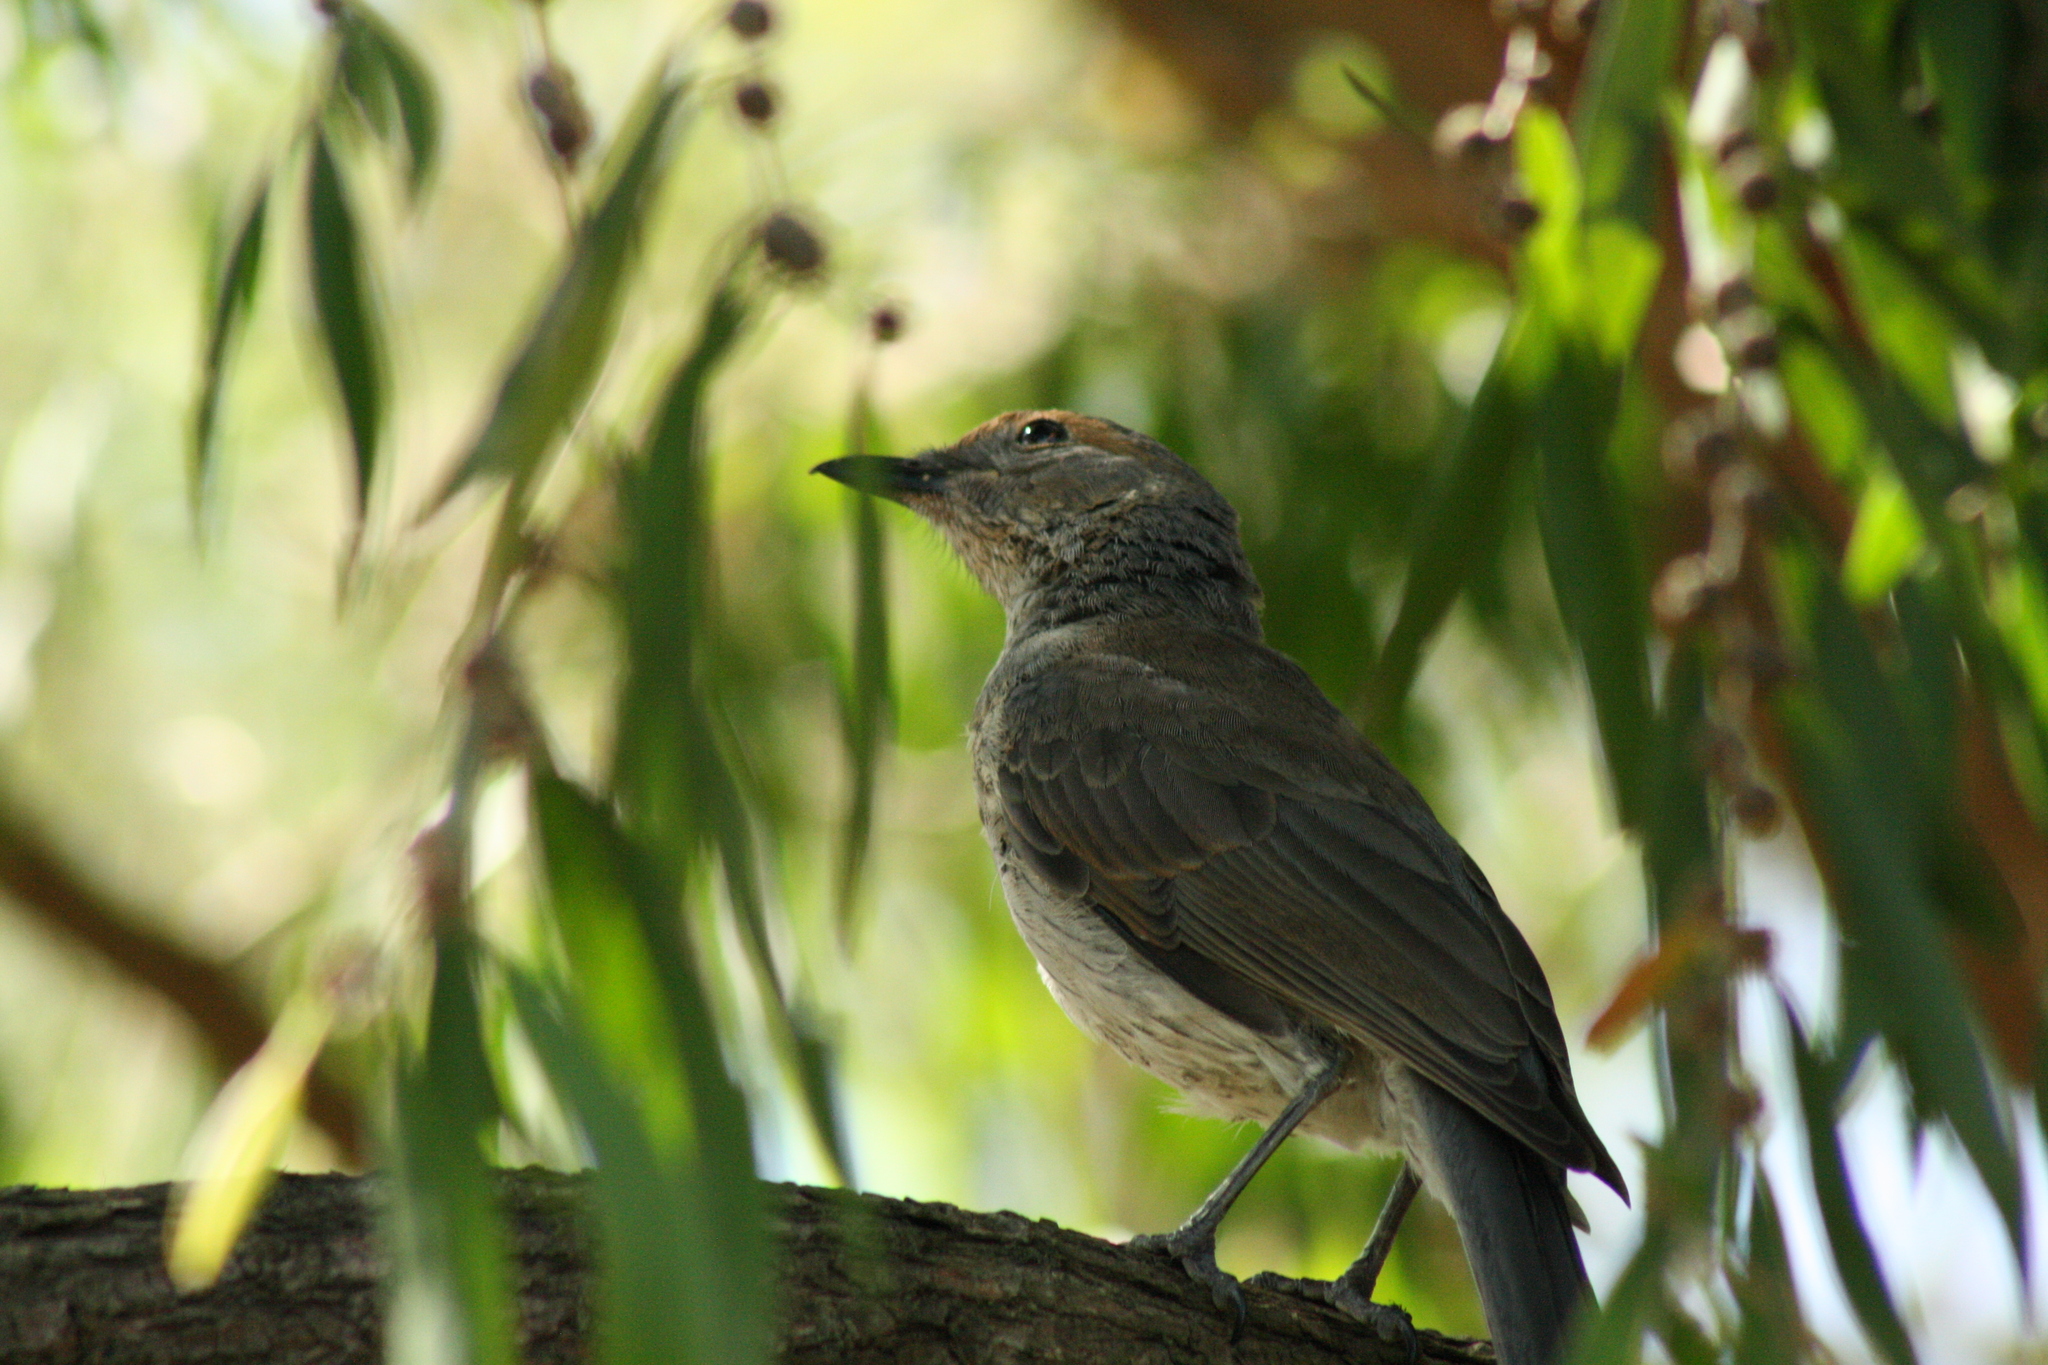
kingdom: Animalia
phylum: Chordata
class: Aves
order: Passeriformes
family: Pachycephalidae
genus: Colluricincla
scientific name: Colluricincla harmonica
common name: Grey shrikethrush
